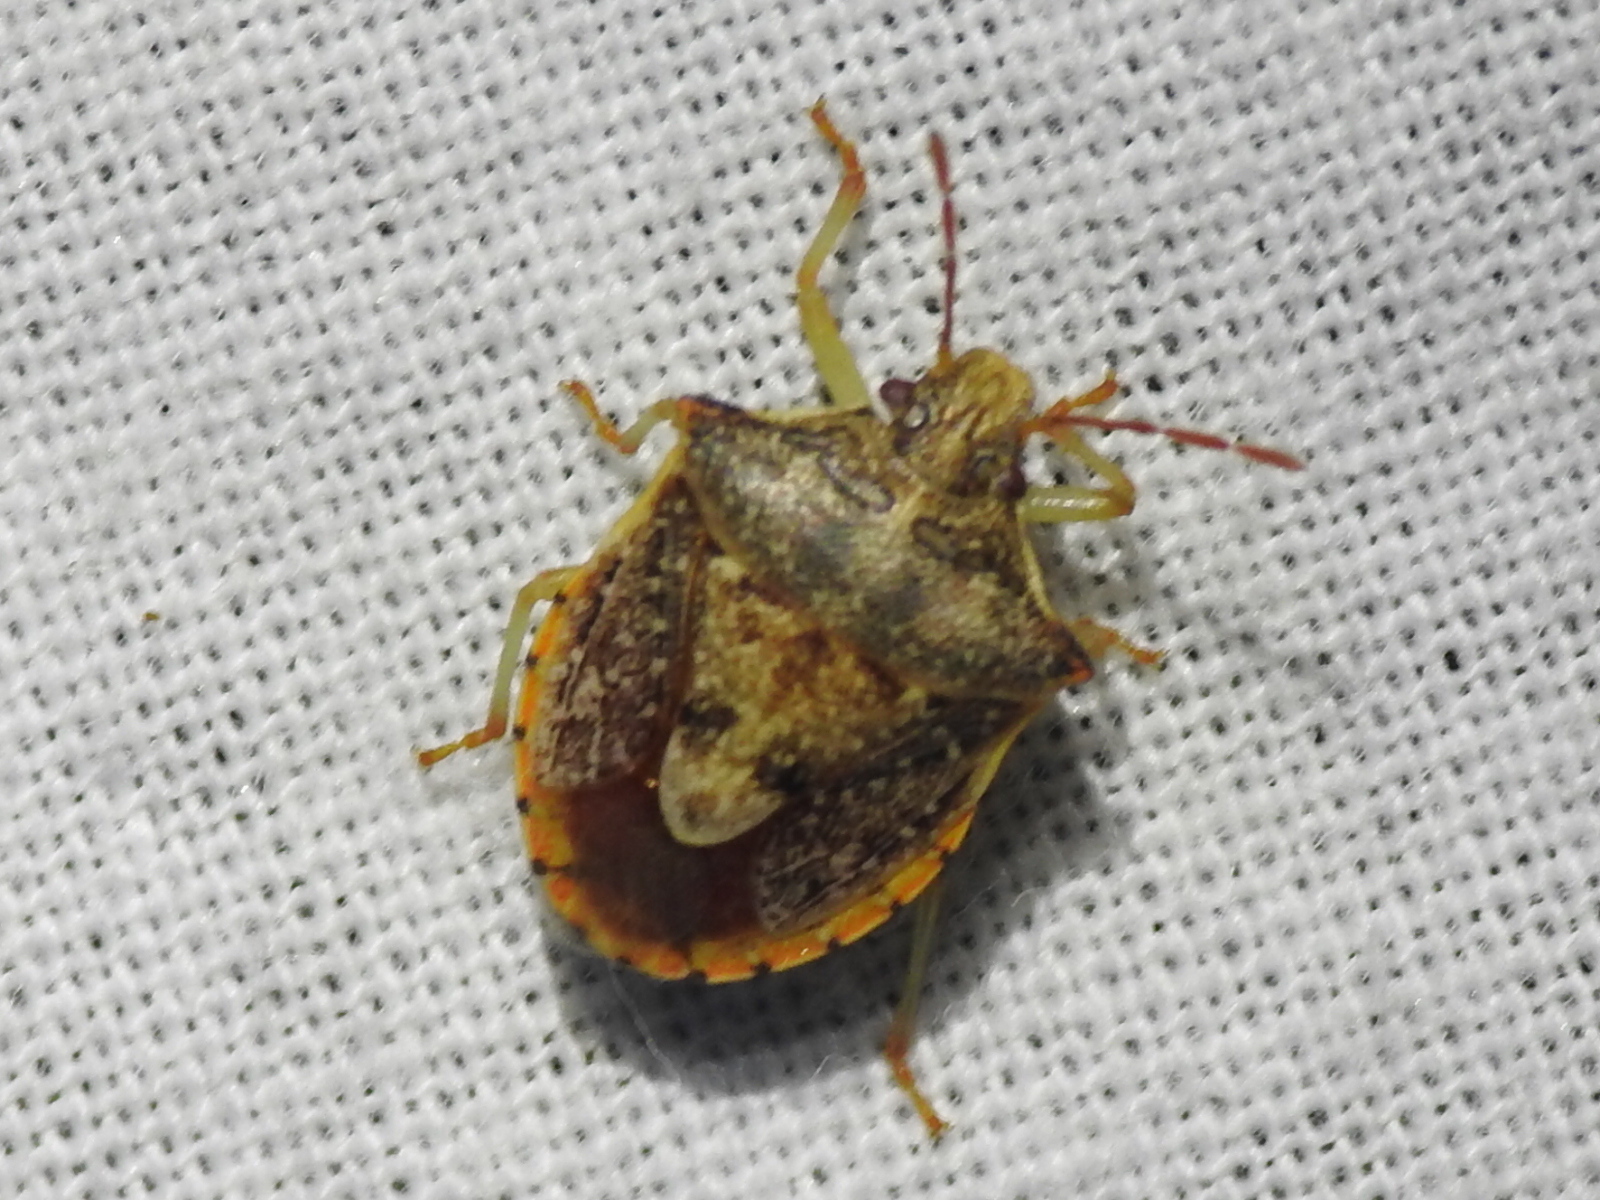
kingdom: Animalia
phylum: Arthropoda
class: Insecta
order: Hemiptera
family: Pentatomidae
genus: Dendrocoris
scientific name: Dendrocoris humeralis
